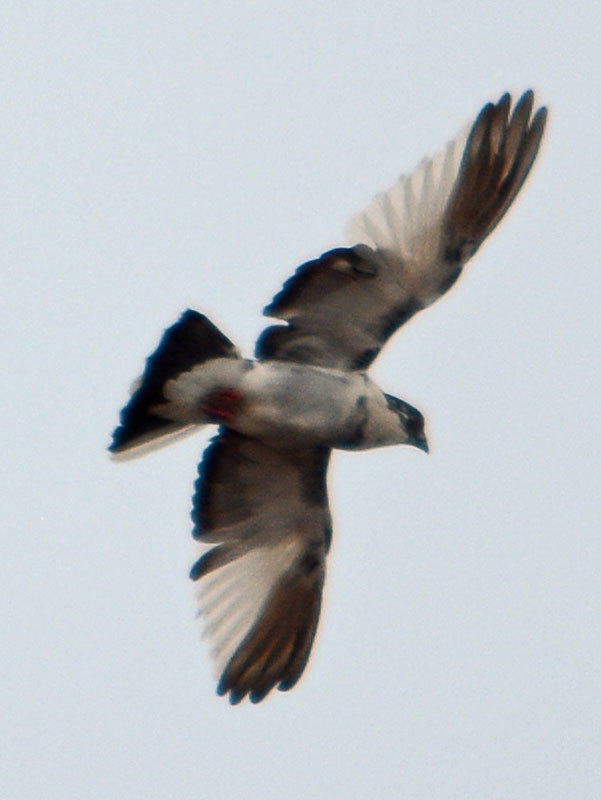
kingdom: Animalia
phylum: Chordata
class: Aves
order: Columbiformes
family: Columbidae
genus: Columba
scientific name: Columba livia
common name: Rock pigeon
